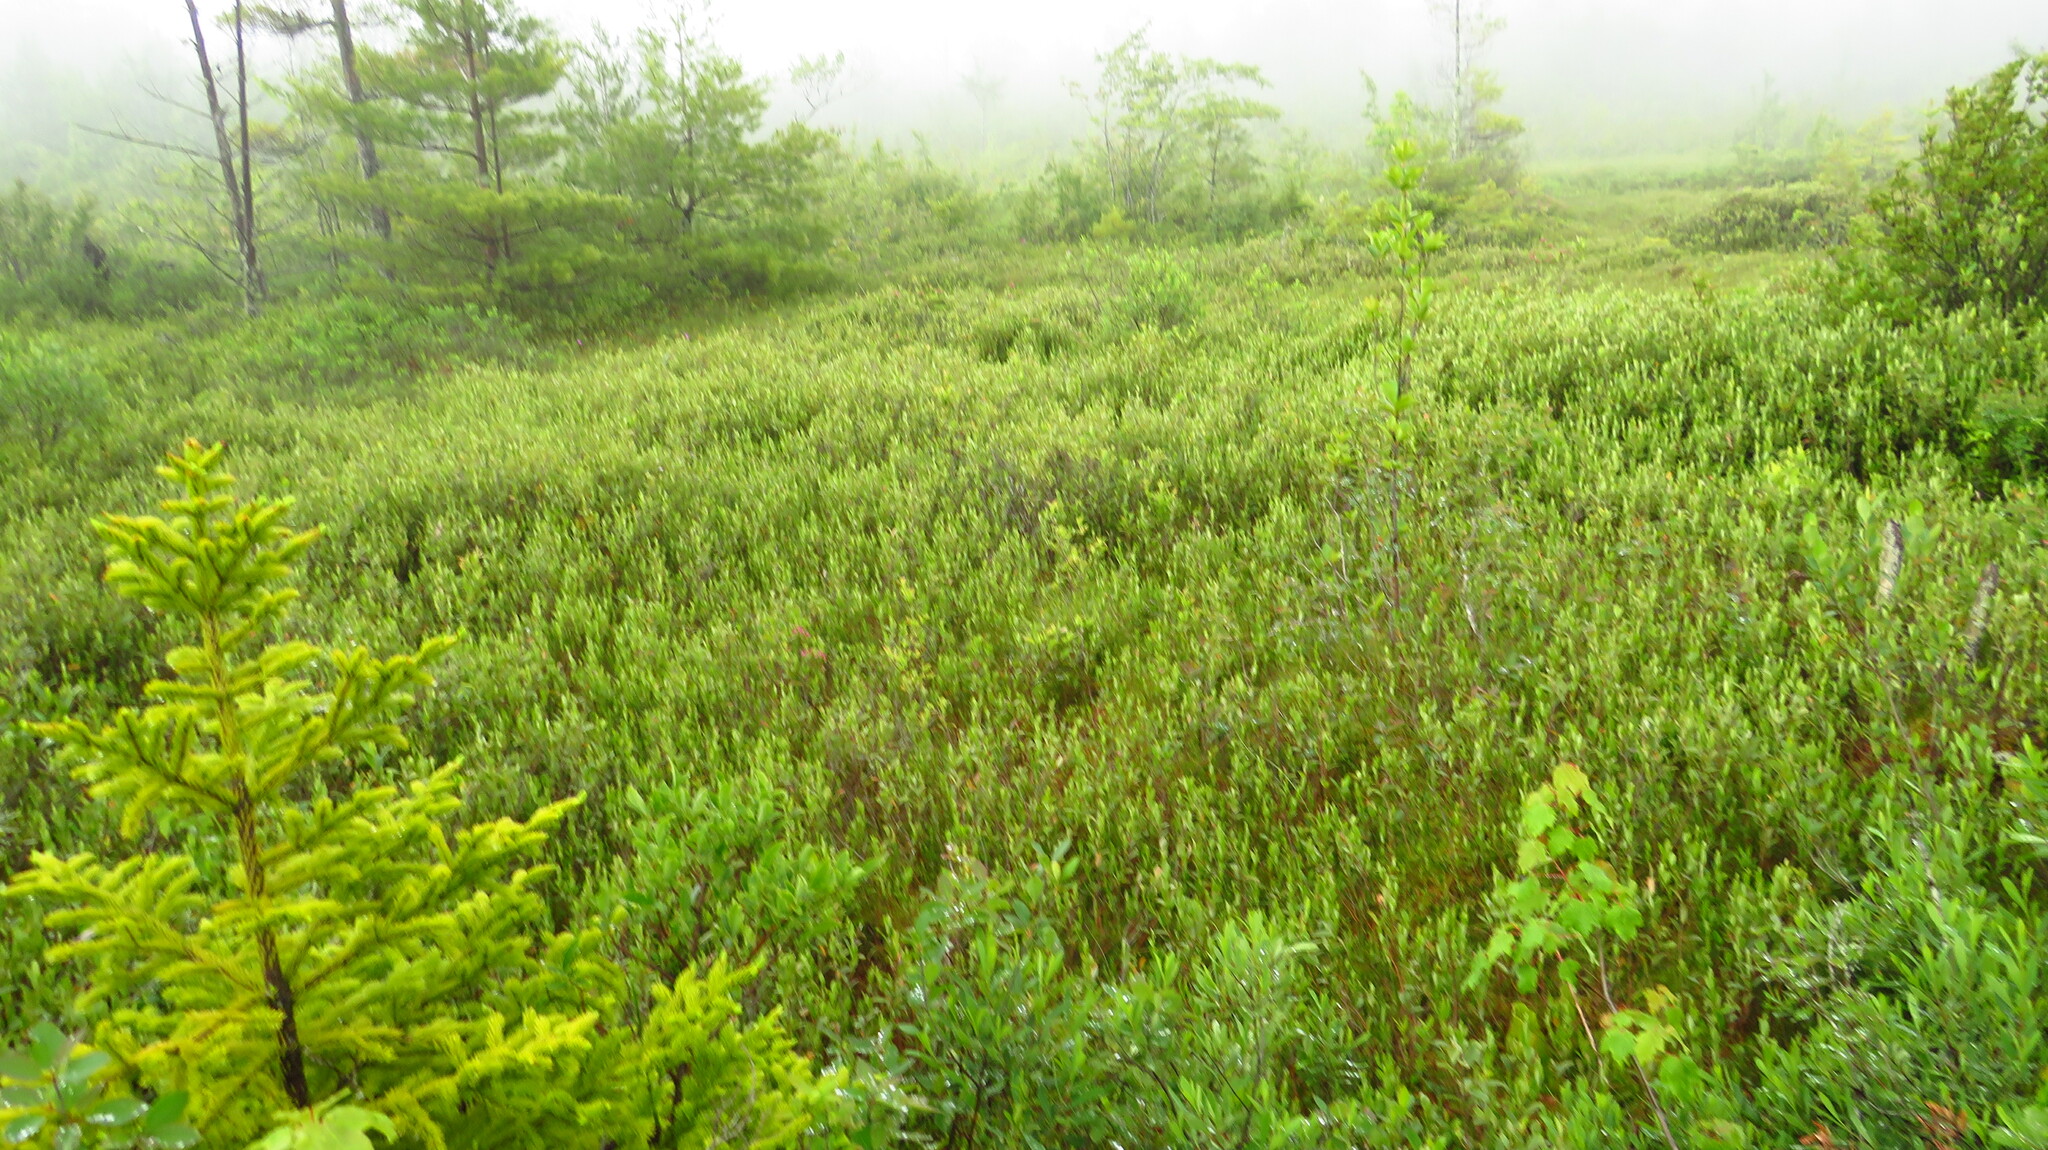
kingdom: Plantae
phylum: Tracheophyta
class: Magnoliopsida
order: Ericales
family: Ericaceae
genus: Chamaedaphne
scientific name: Chamaedaphne calyculata
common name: Leatherleaf
